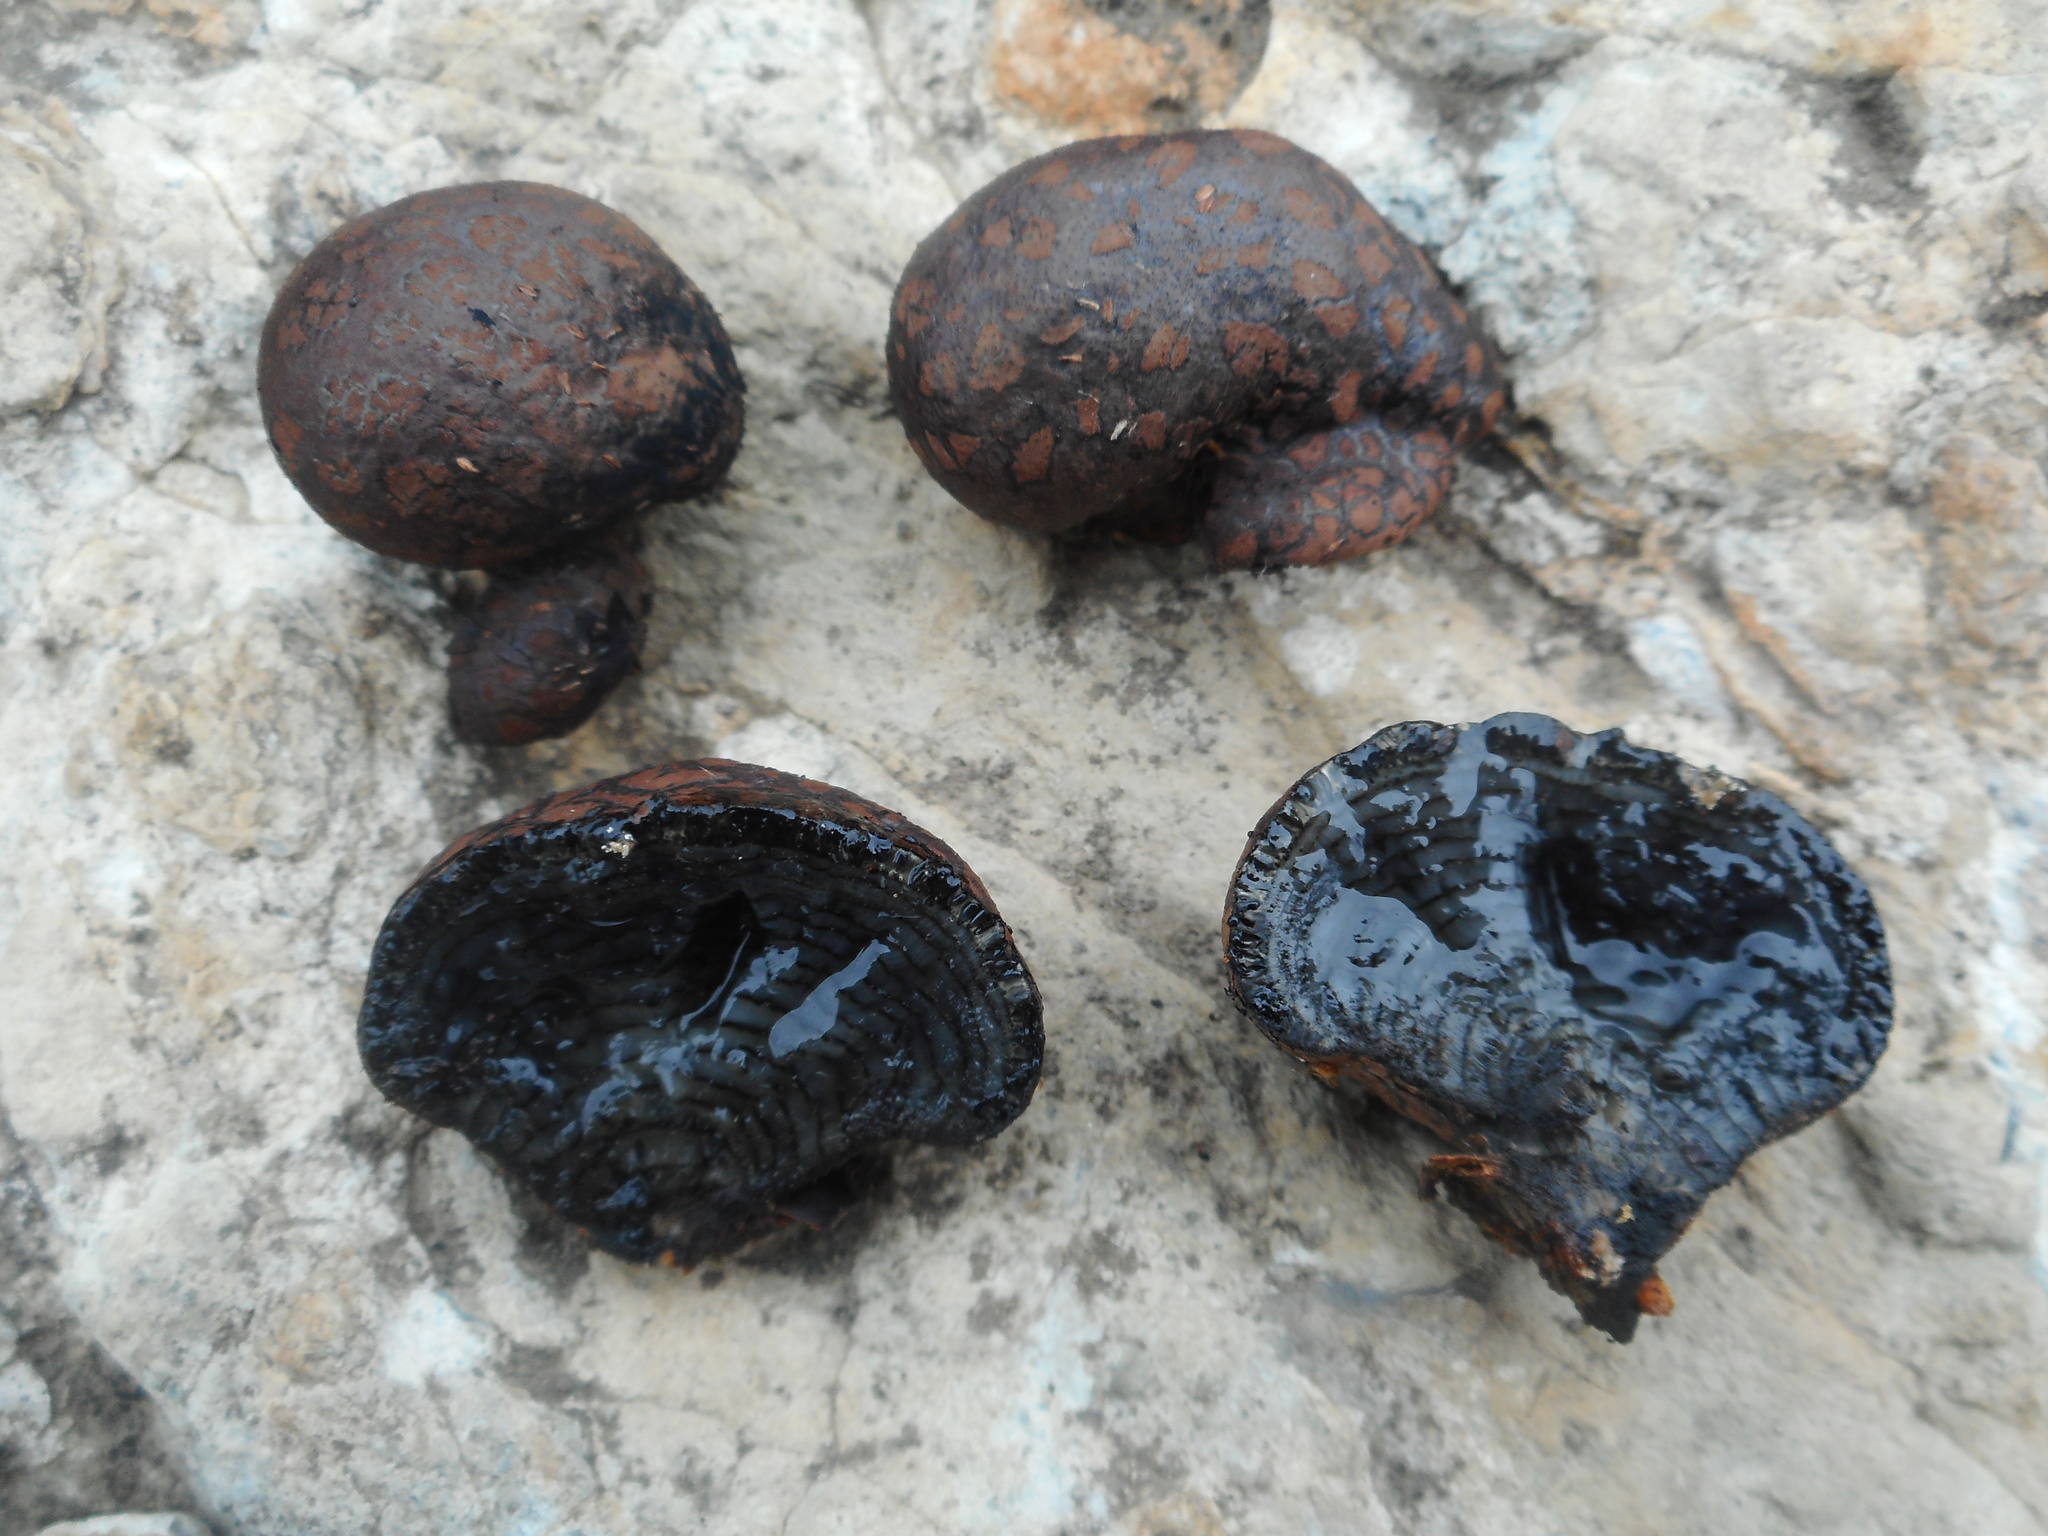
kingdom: Fungi
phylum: Ascomycota
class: Sordariomycetes
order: Xylariales
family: Hypoxylaceae
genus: Daldinia
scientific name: Daldinia vernicosa
